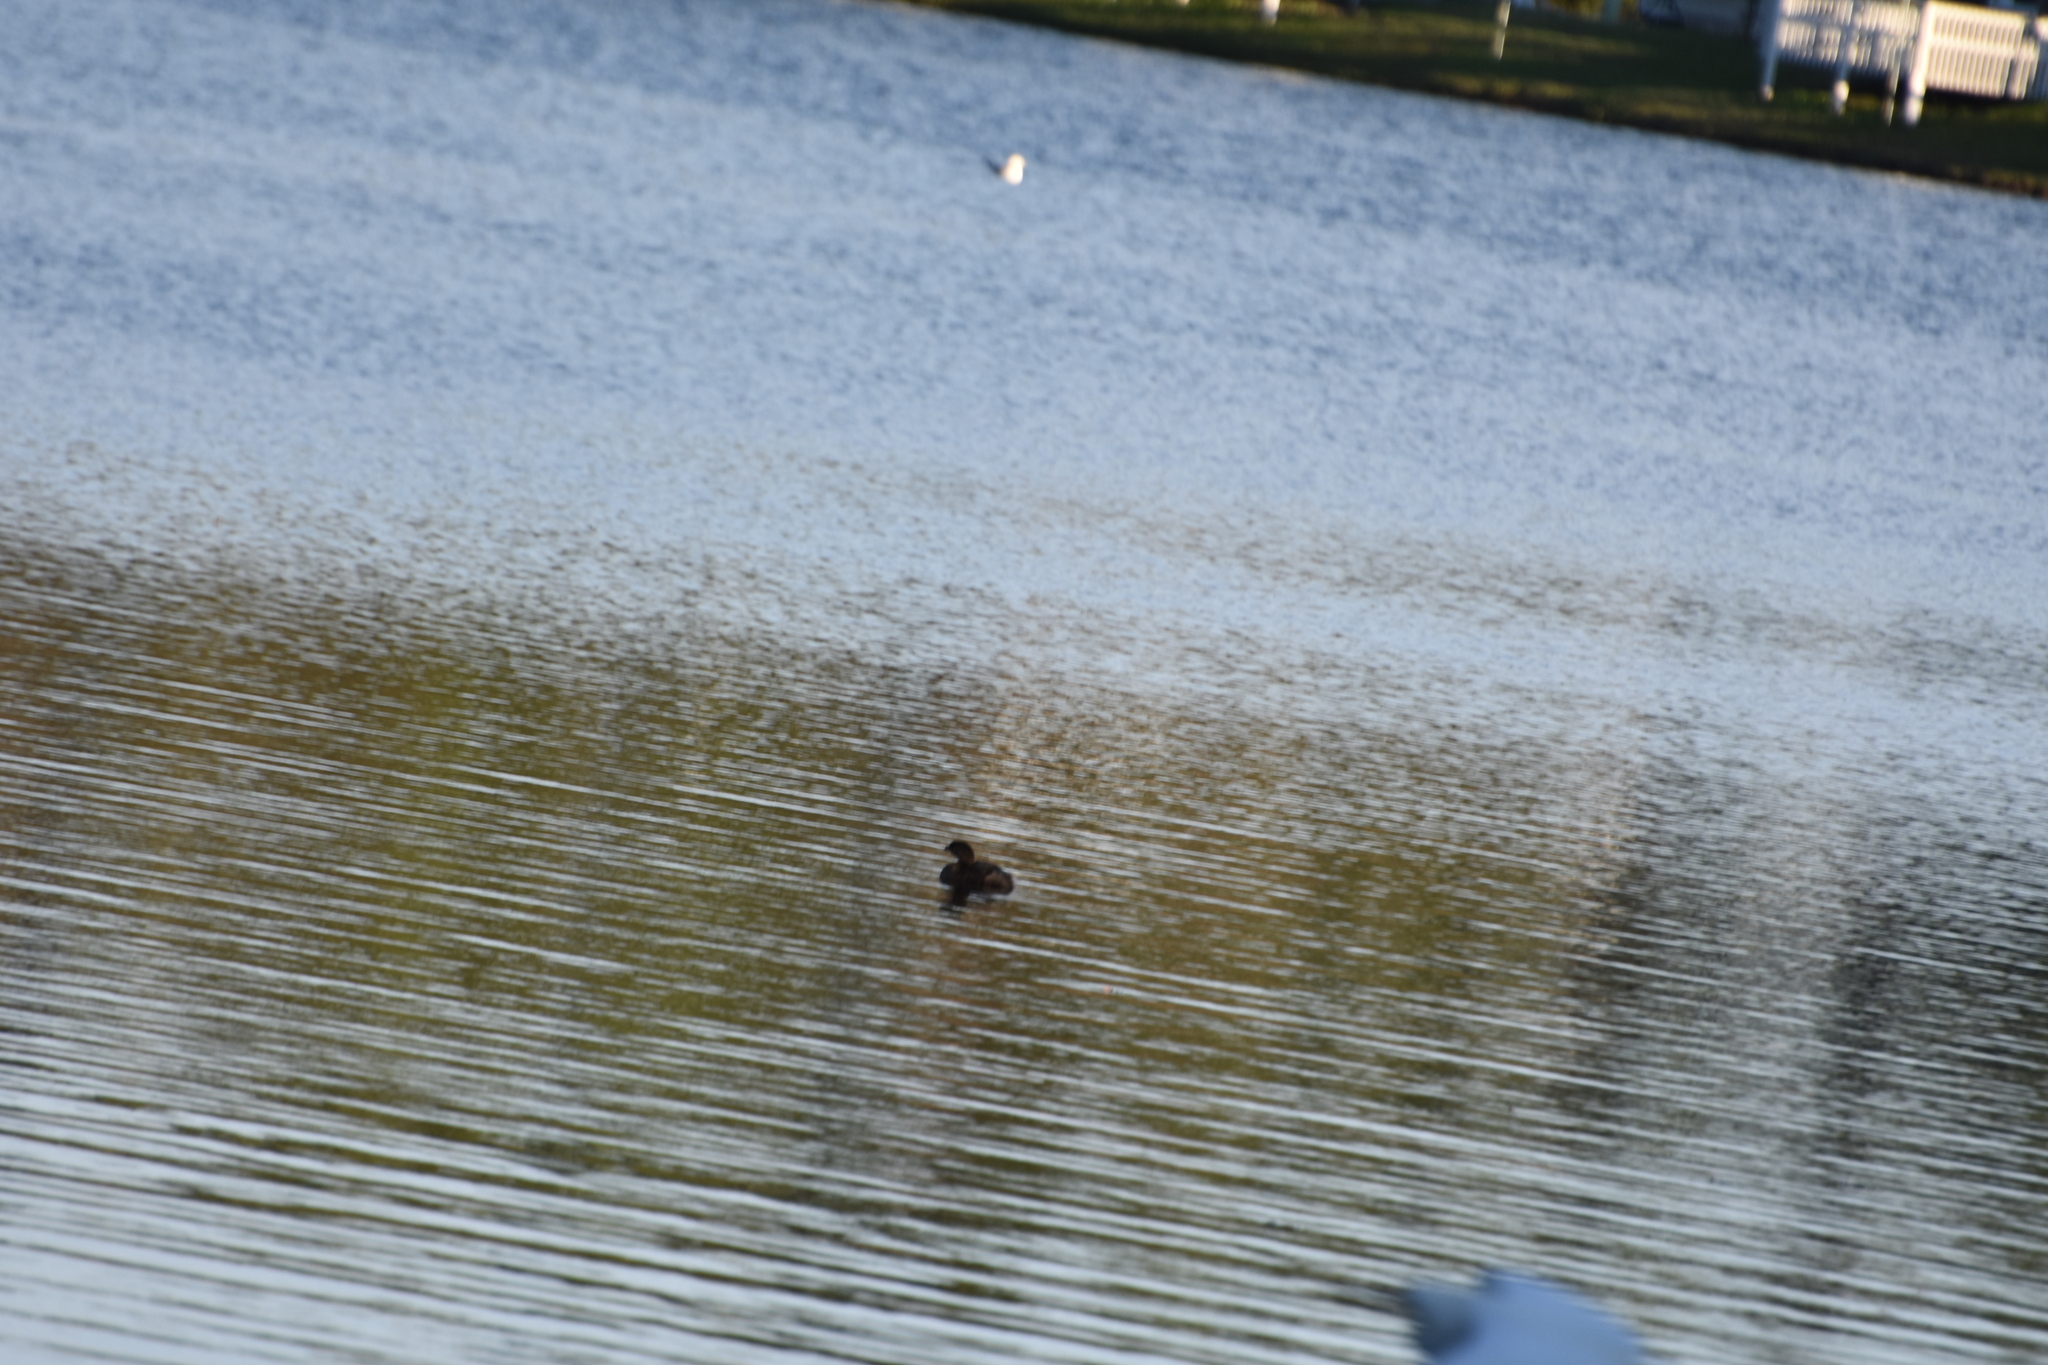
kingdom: Animalia
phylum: Chordata
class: Aves
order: Podicipediformes
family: Podicipedidae
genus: Podilymbus
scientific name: Podilymbus podiceps
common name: Pied-billed grebe
